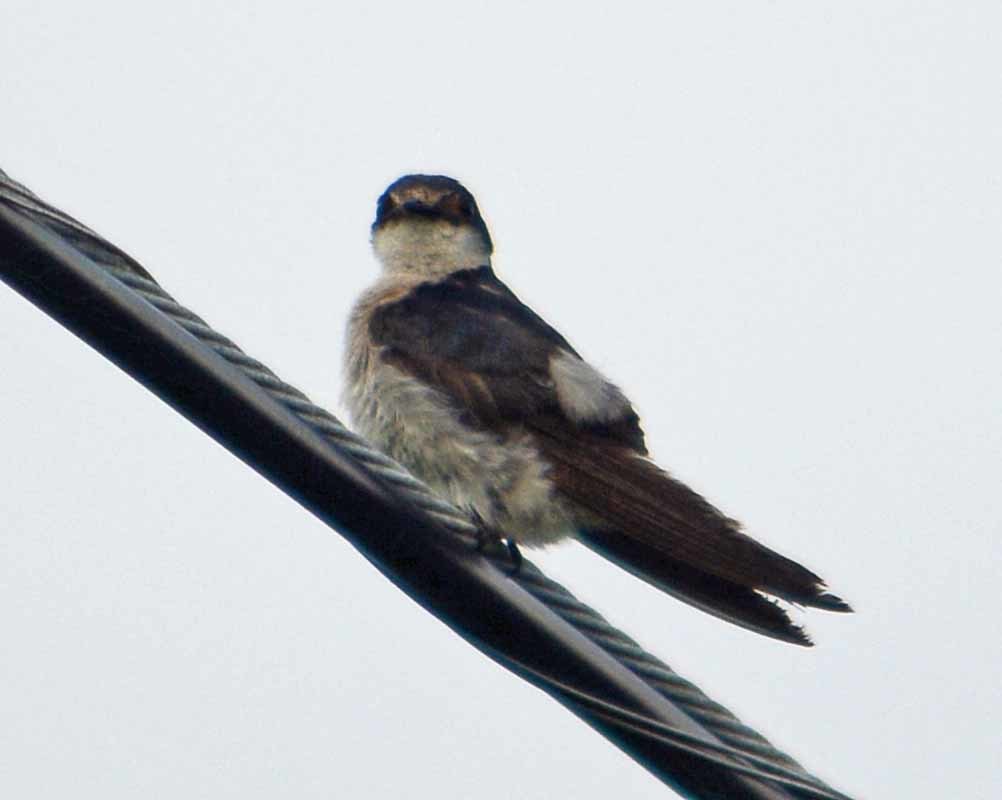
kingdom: Animalia
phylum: Chordata
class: Aves
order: Passeriformes
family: Hirundinidae
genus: Tachycineta
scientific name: Tachycineta albilinea
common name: Mangrove swallow
